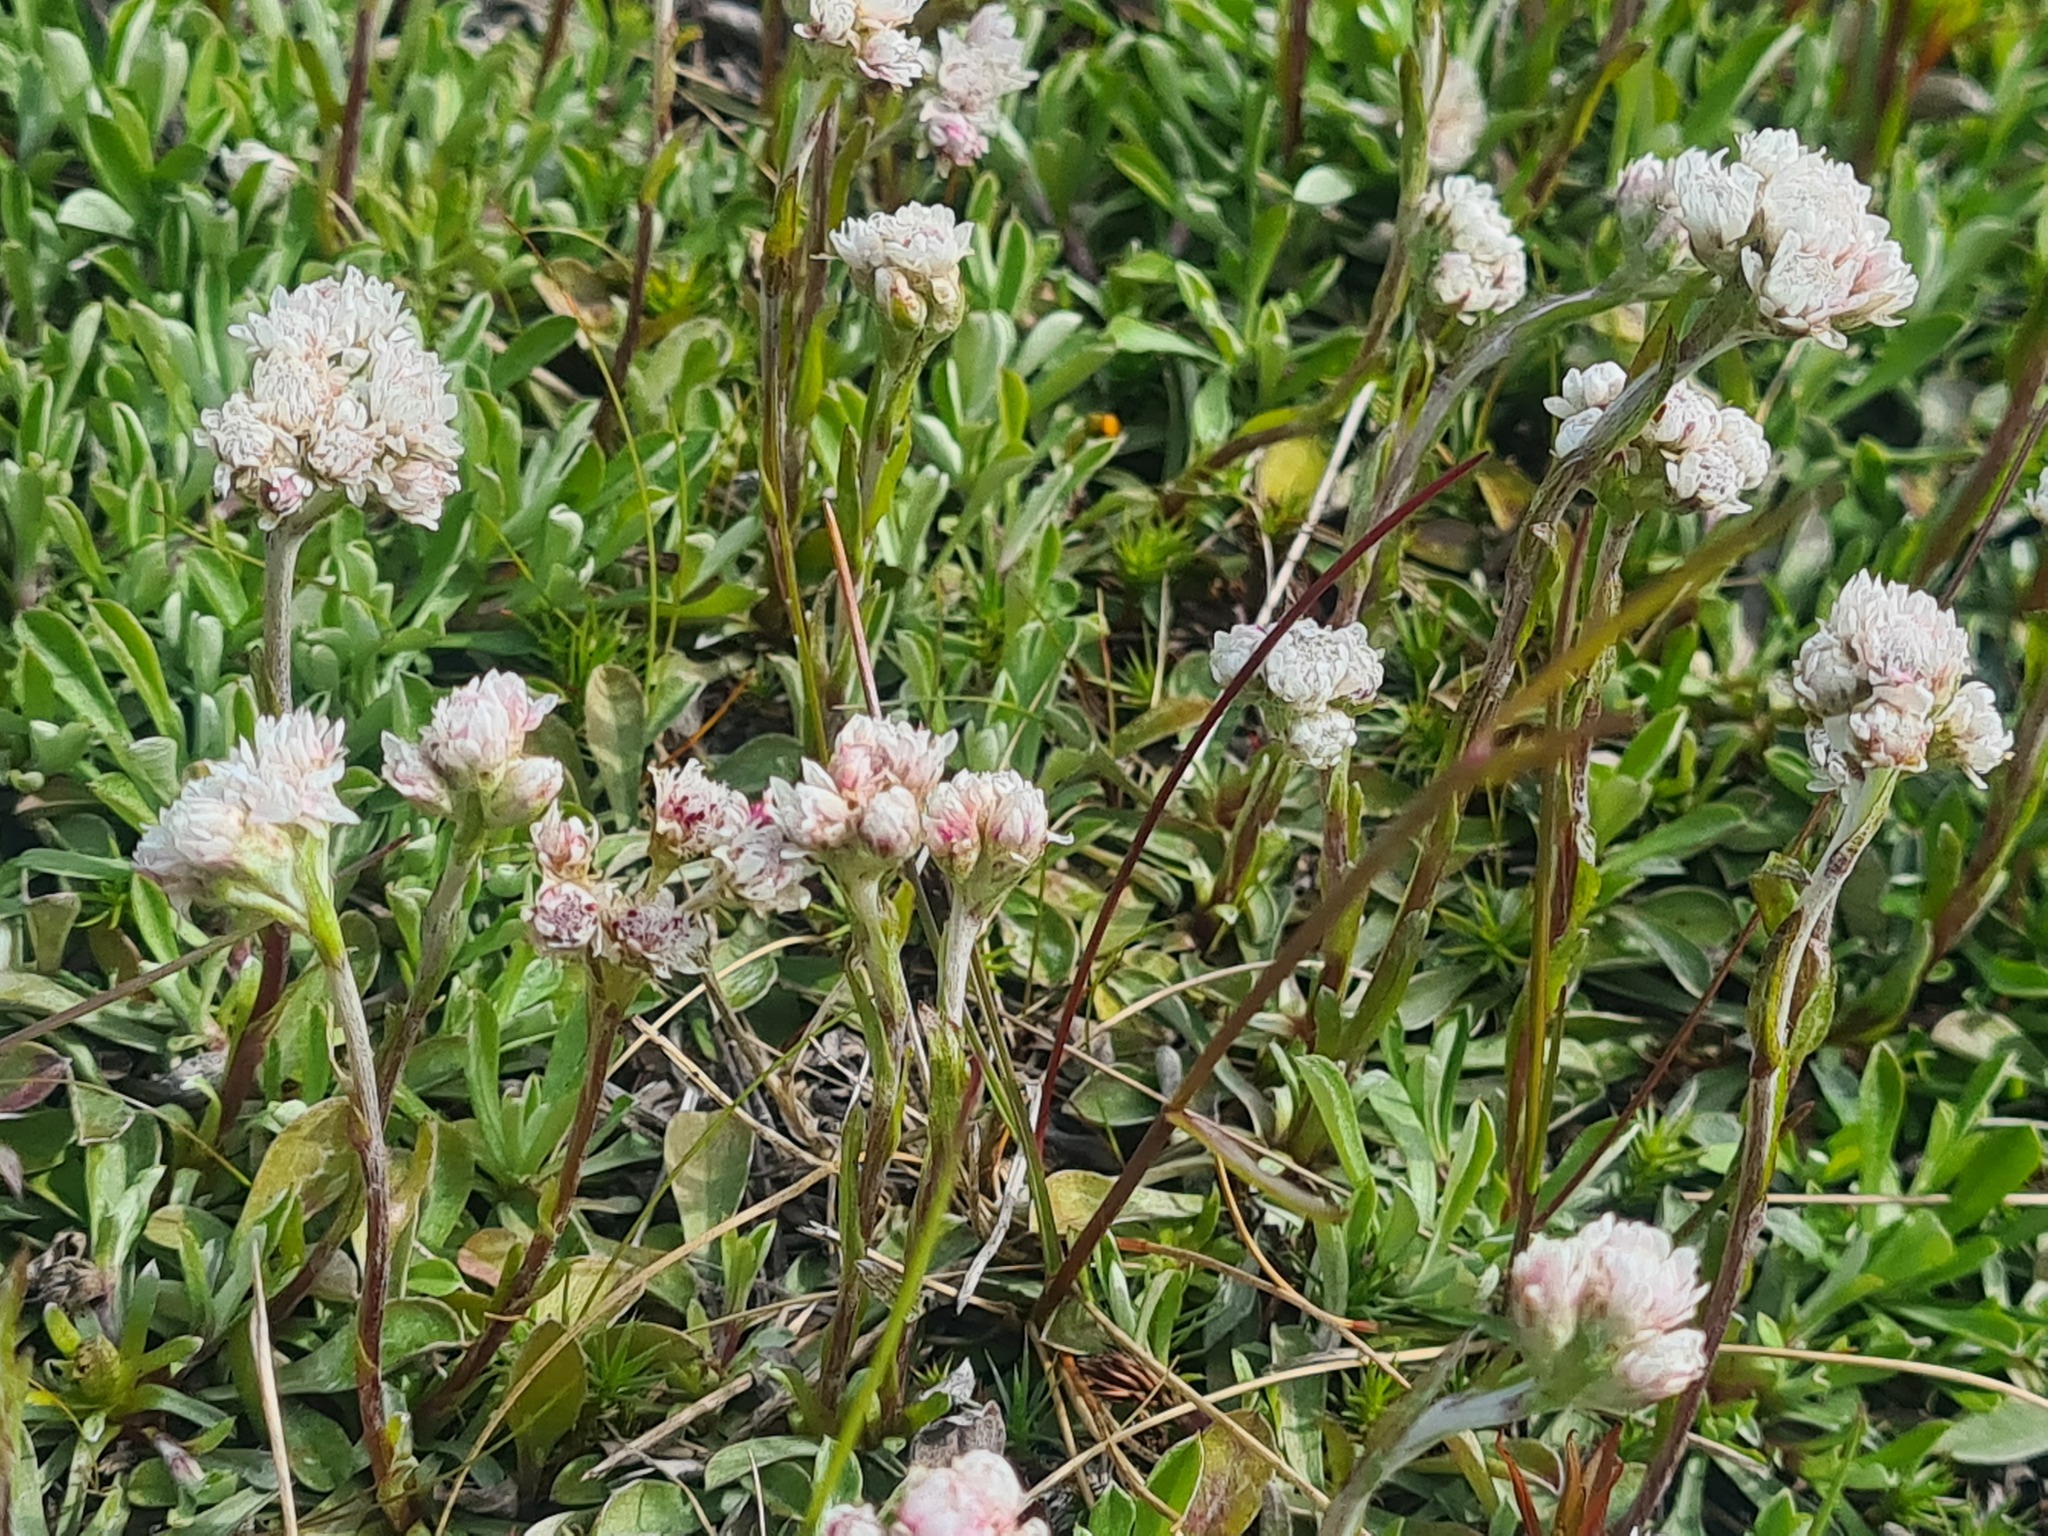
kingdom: Plantae
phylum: Tracheophyta
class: Magnoliopsida
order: Asterales
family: Asteraceae
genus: Antennaria
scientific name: Antennaria dioica
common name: Mountain everlasting
